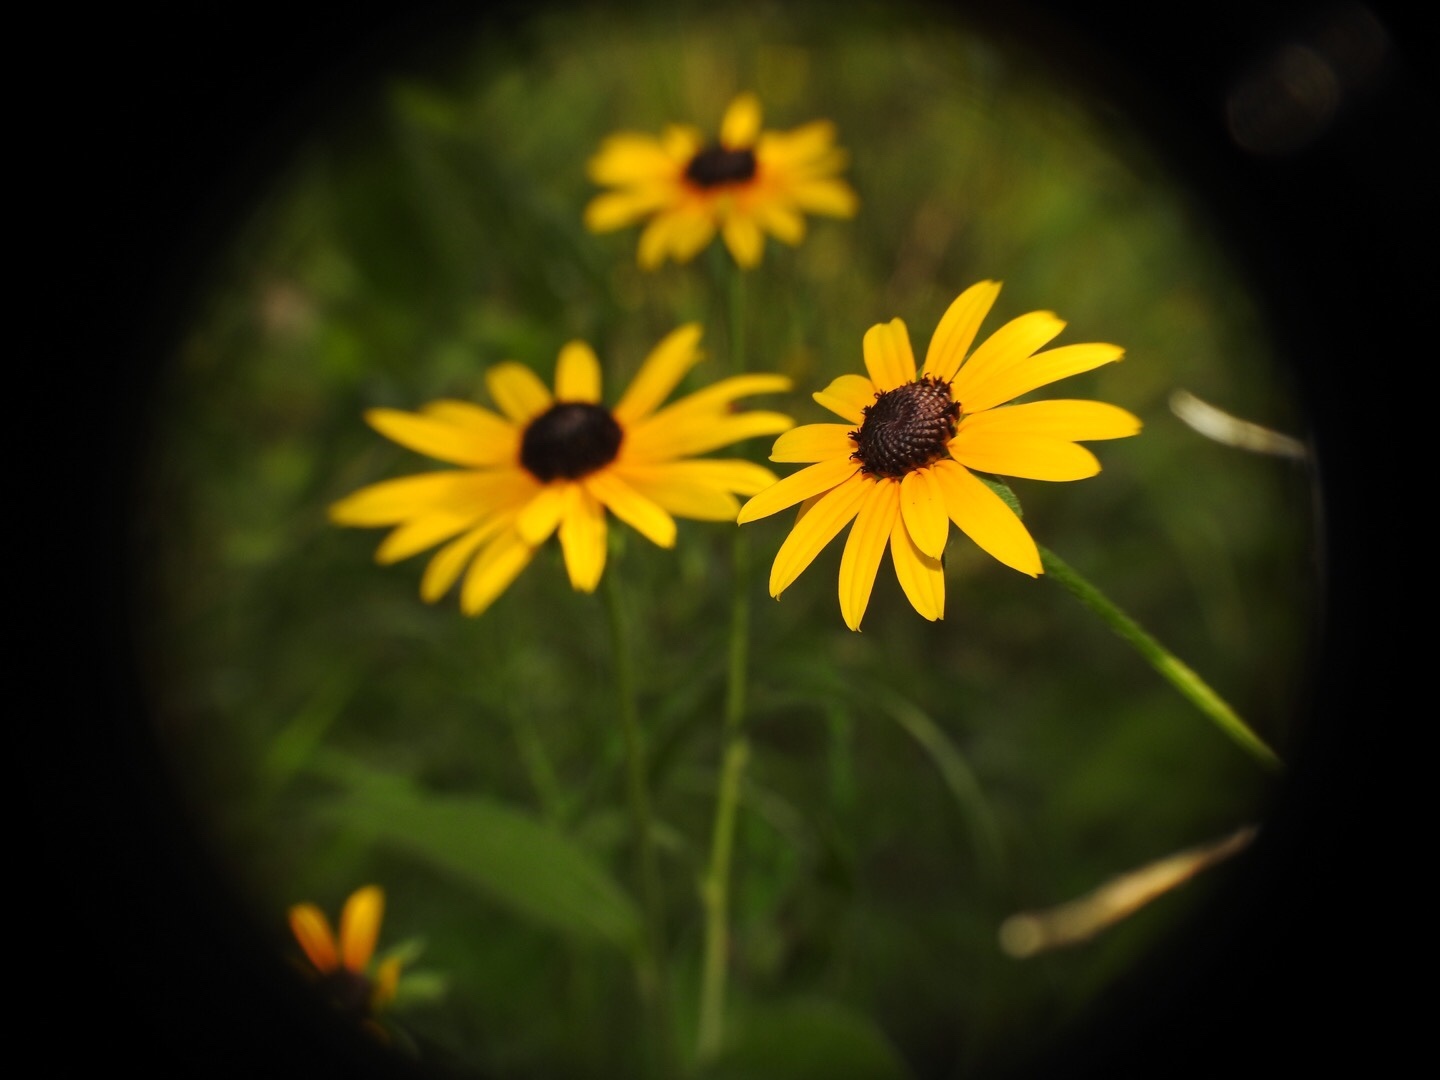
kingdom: Plantae
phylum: Tracheophyta
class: Magnoliopsida
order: Asterales
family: Asteraceae
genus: Rudbeckia
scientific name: Rudbeckia hirta
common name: Black-eyed-susan
